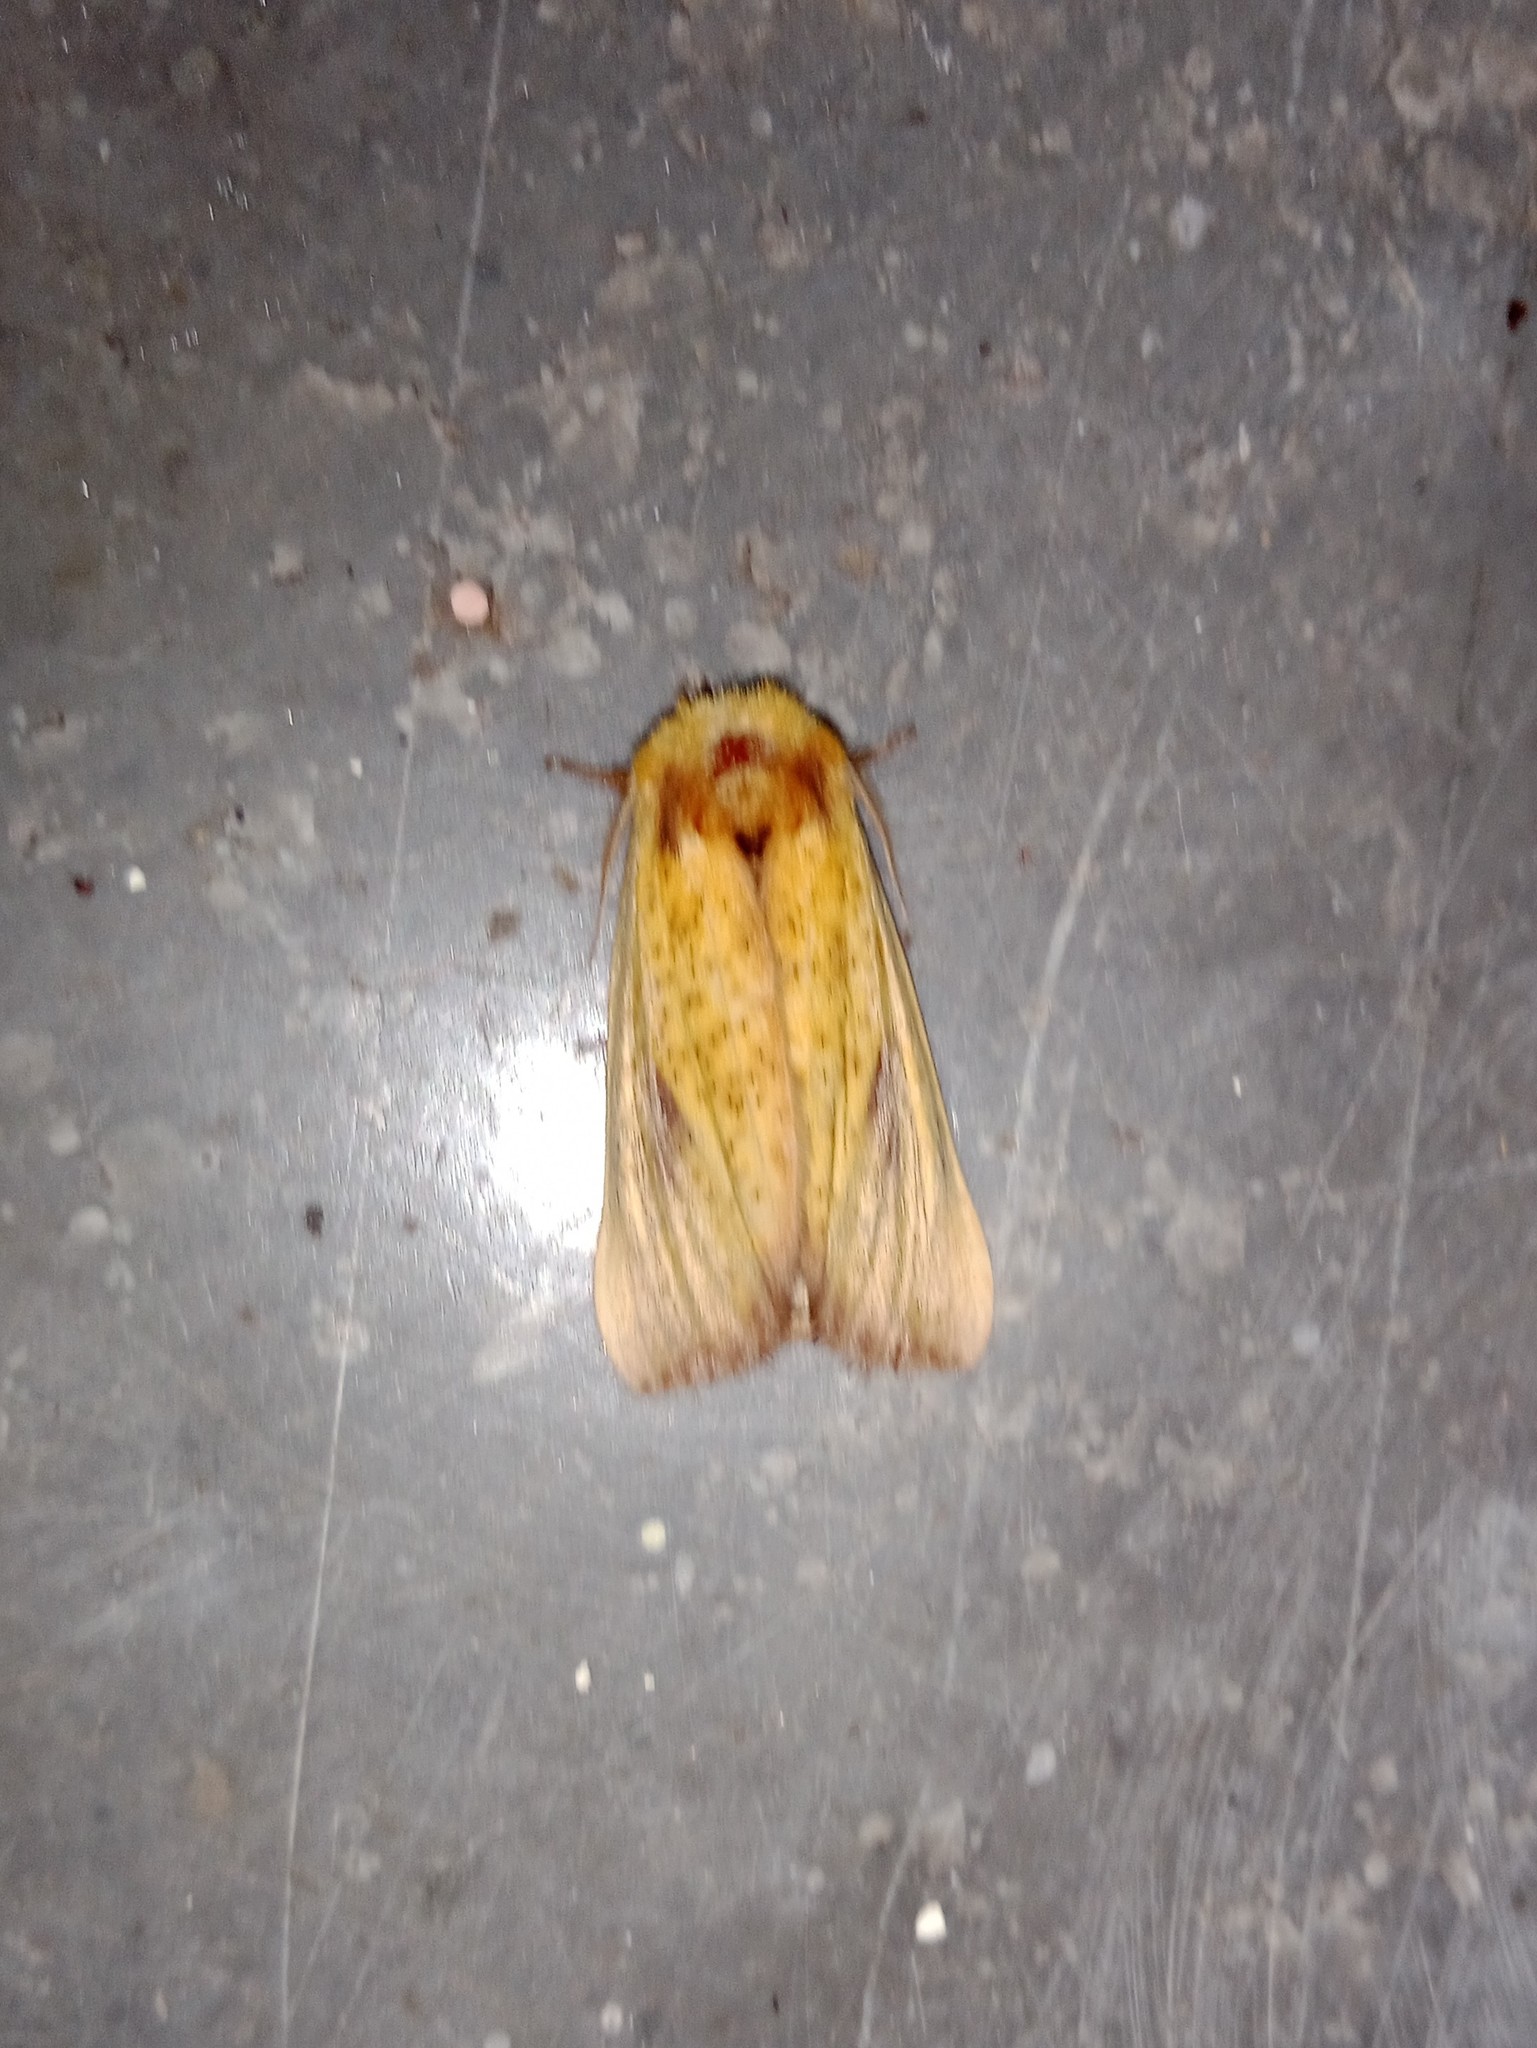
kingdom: Animalia
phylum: Arthropoda
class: Insecta
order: Lepidoptera
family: Notodontidae
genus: Antheua
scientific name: Antheua servula
